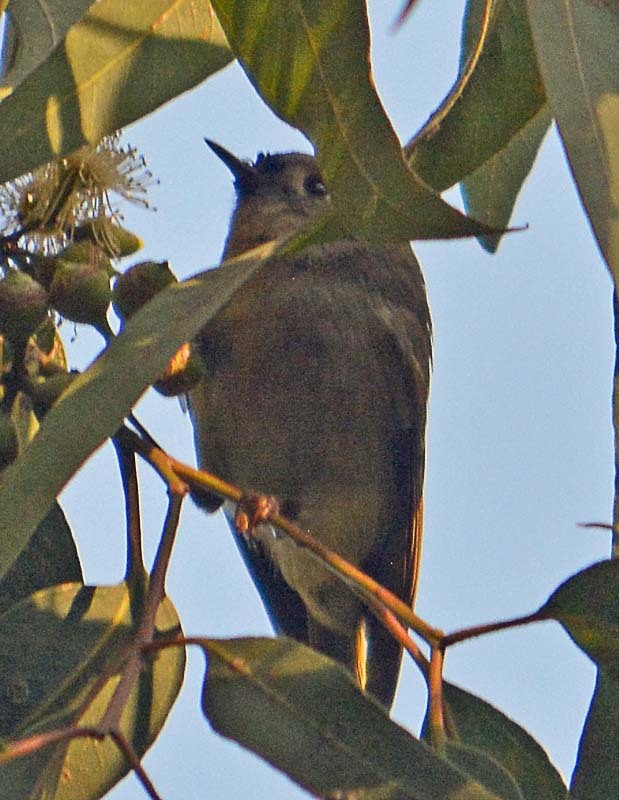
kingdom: Animalia
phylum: Chordata
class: Aves
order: Passeriformes
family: Regulidae
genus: Regulus
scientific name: Regulus calendula
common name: Ruby-crowned kinglet
